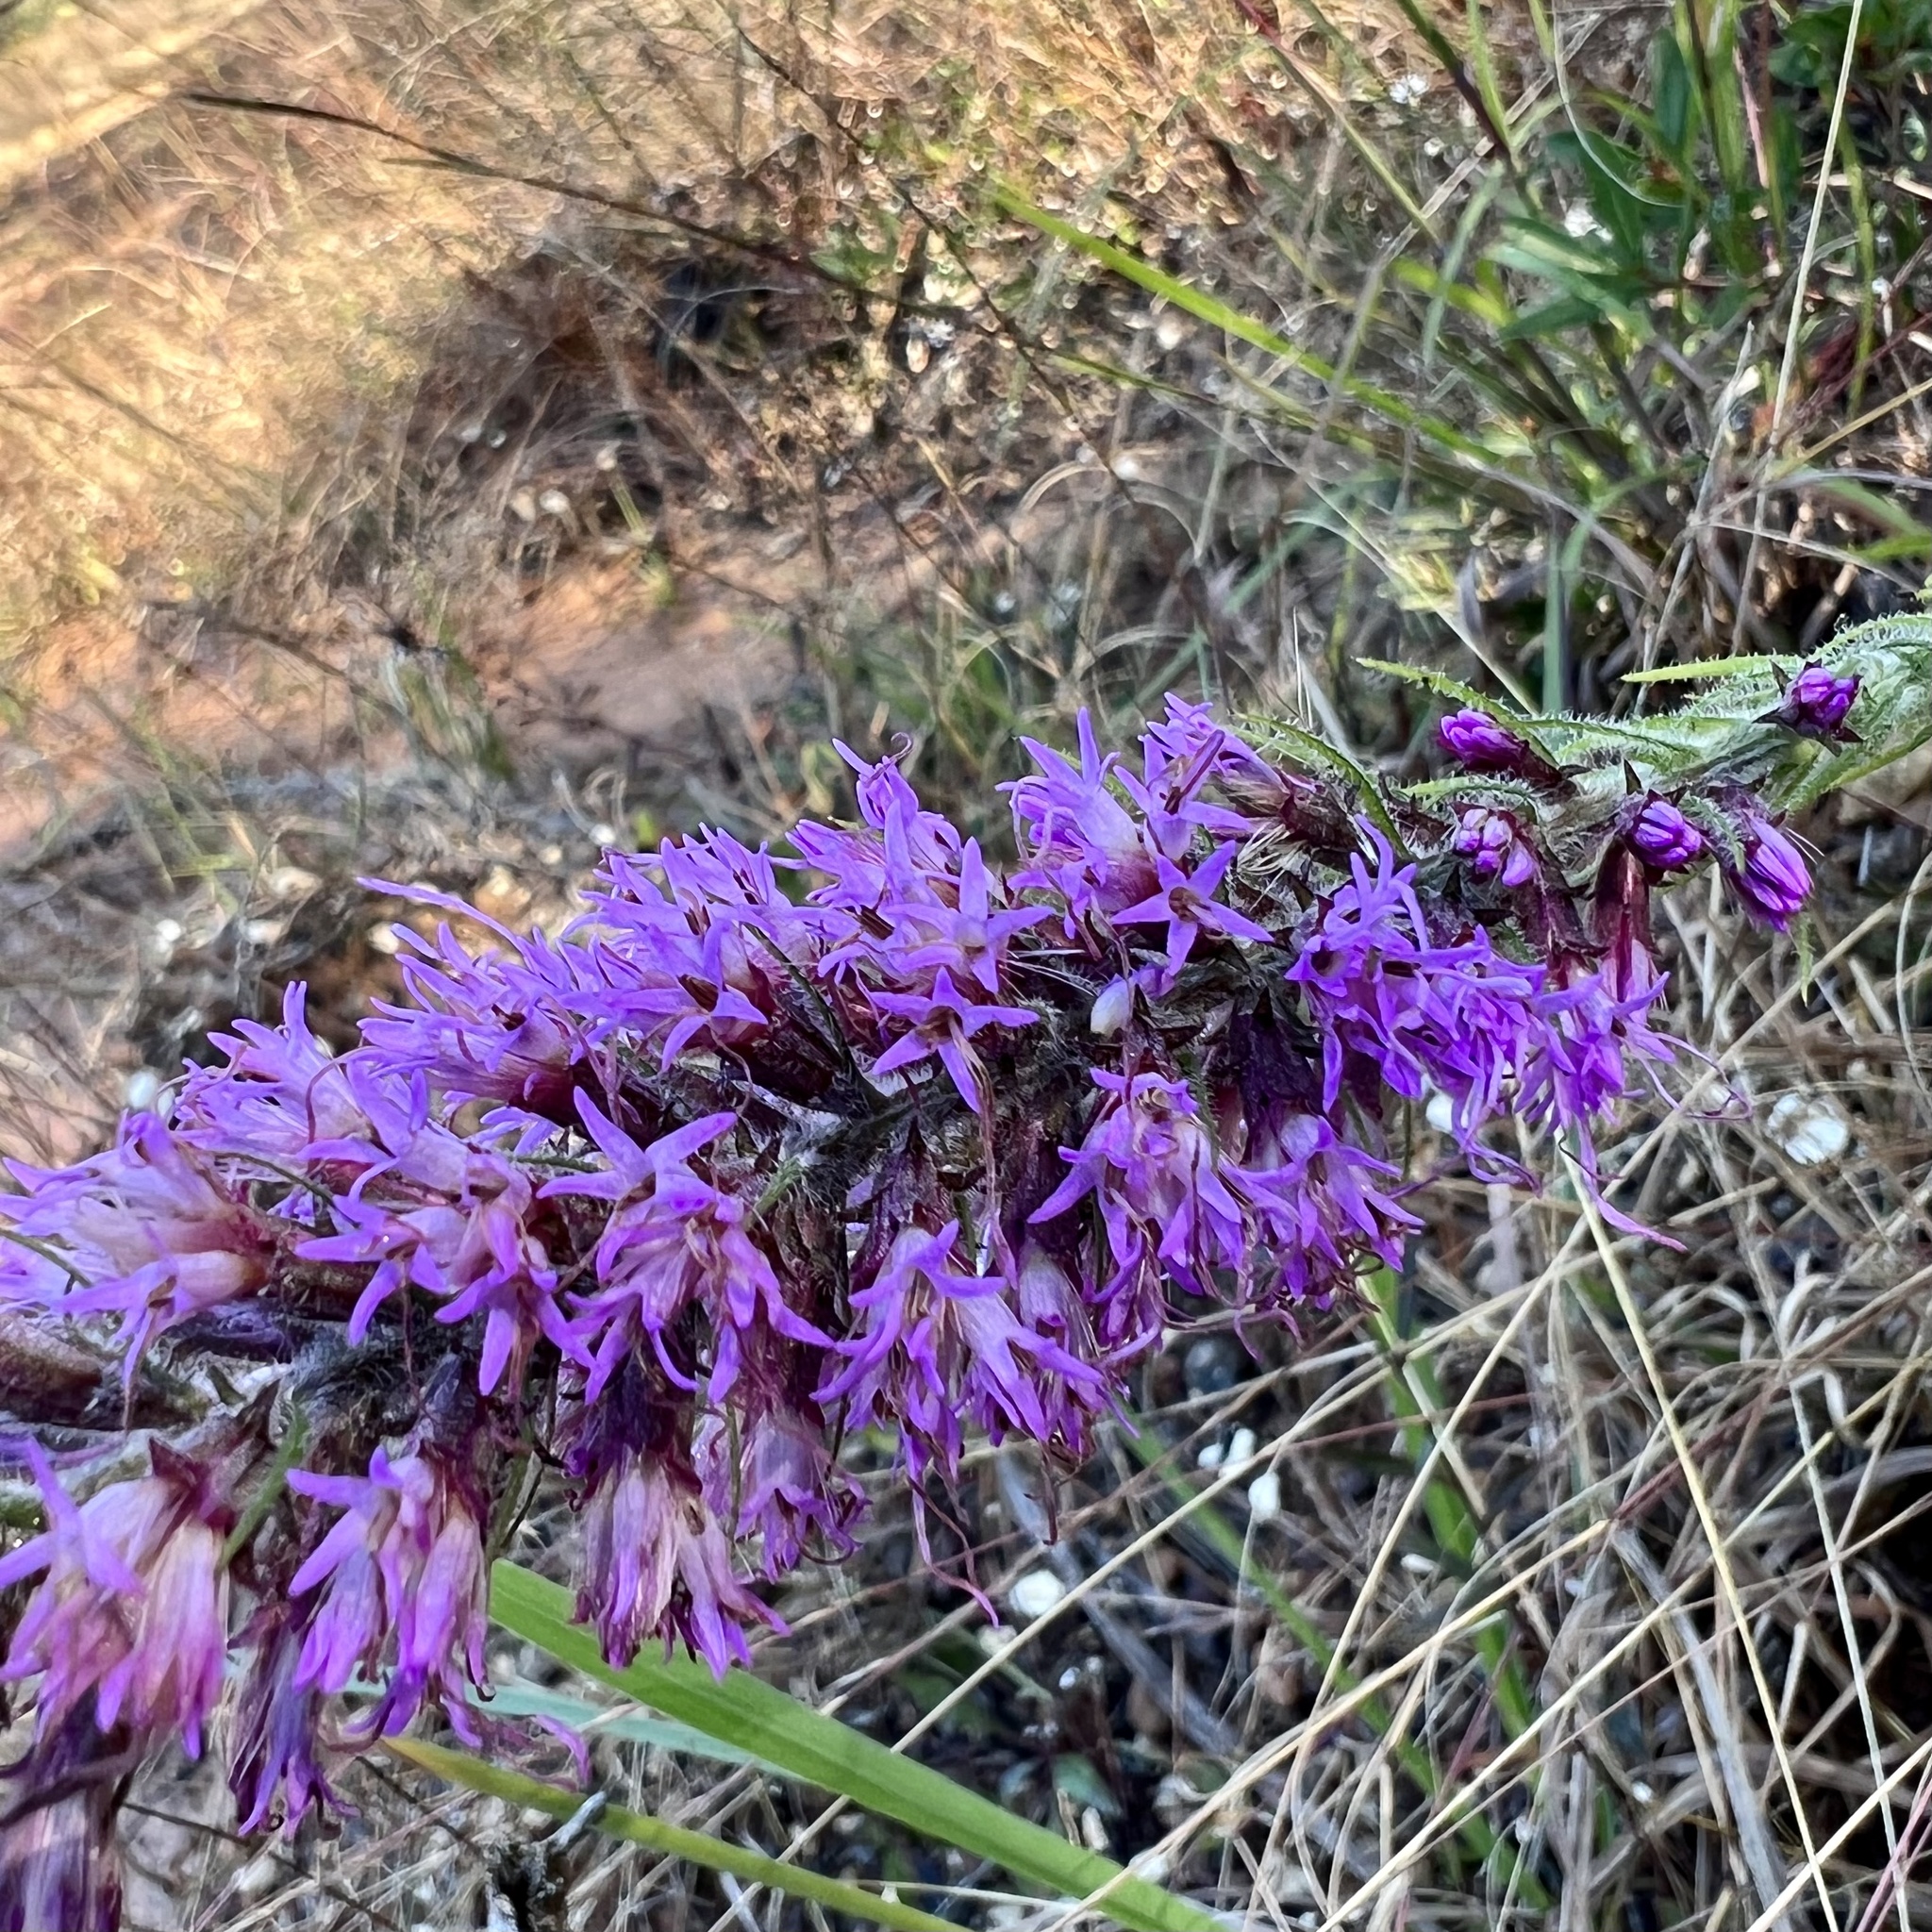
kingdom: Plantae
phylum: Tracheophyta
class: Magnoliopsida
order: Asterales
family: Asteraceae
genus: Liatris
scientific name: Liatris pycnostachya
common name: Cattail gayfeather
